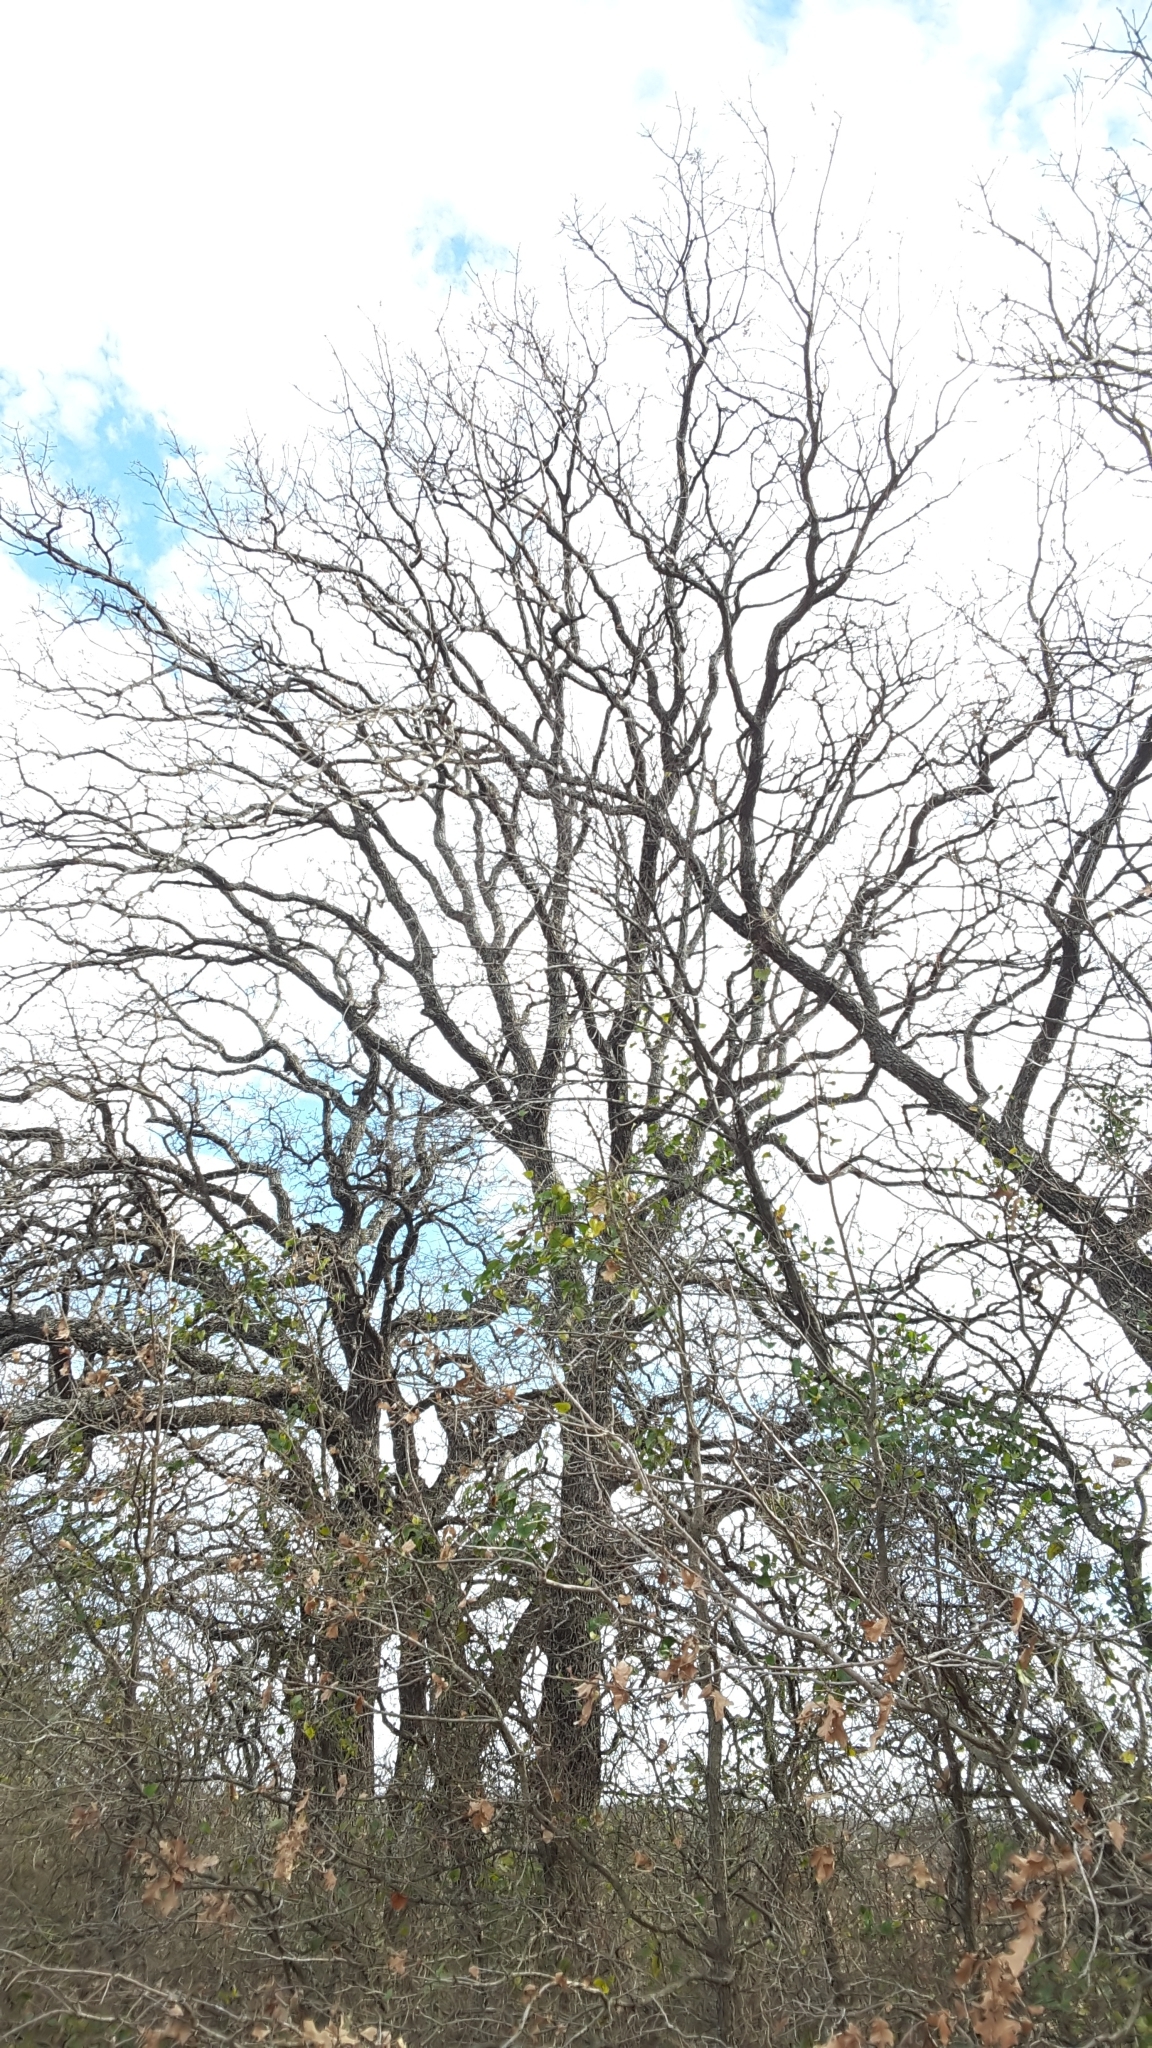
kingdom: Plantae
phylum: Tracheophyta
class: Magnoliopsida
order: Fagales
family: Fagaceae
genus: Quercus
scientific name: Quercus stellata
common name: Post oak
